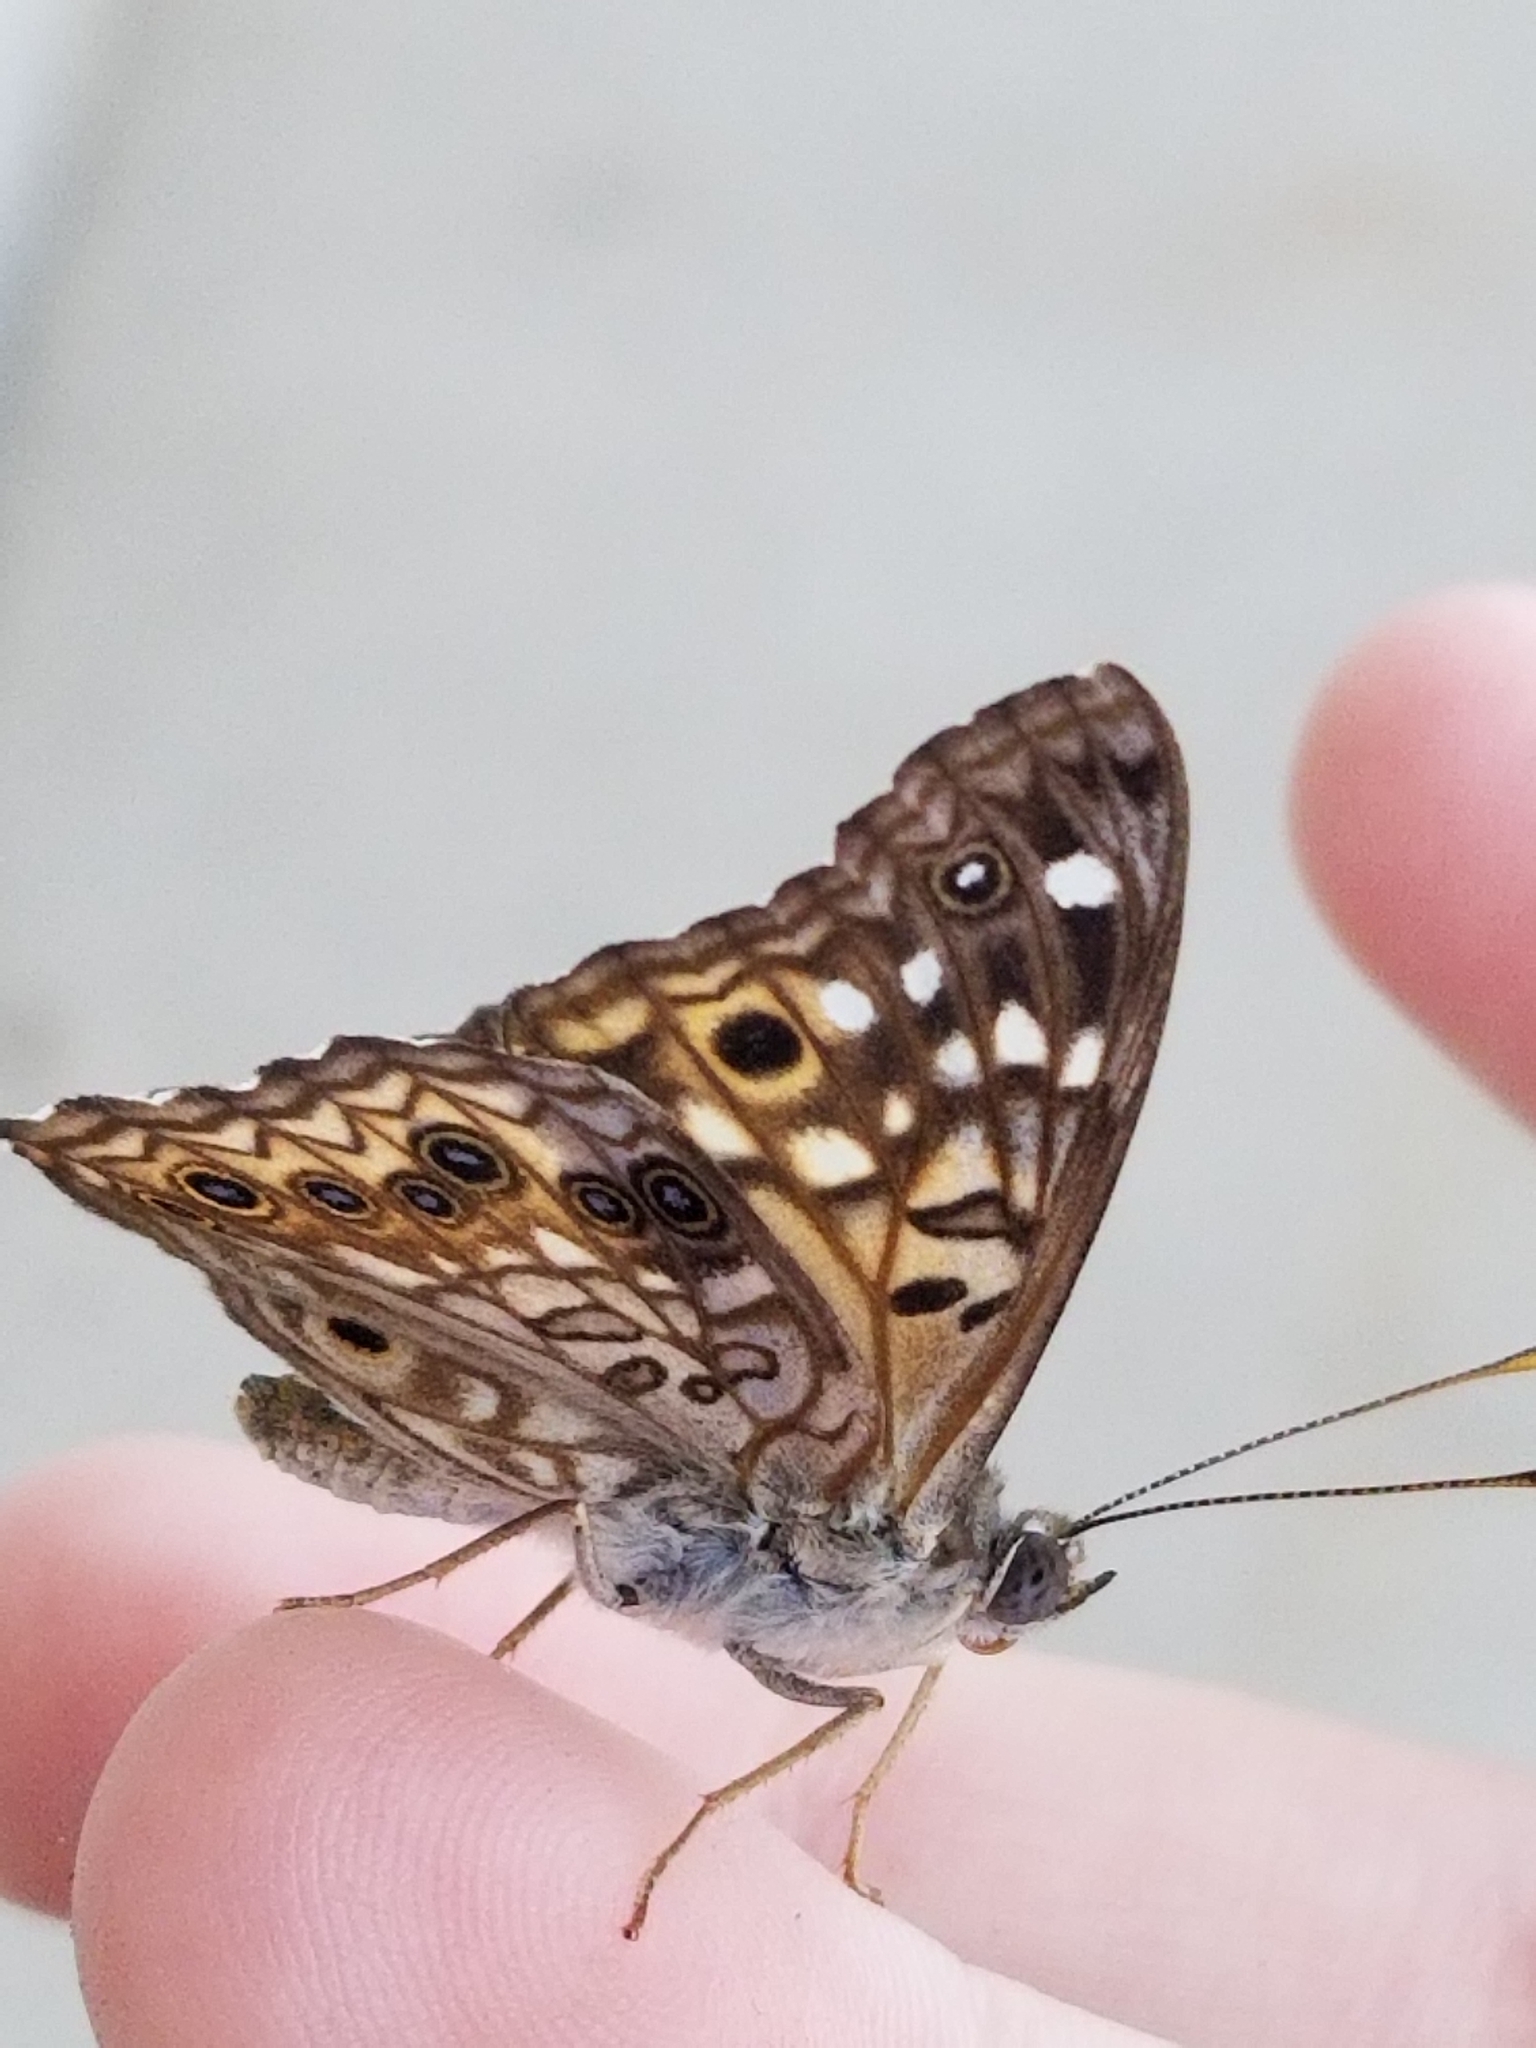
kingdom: Animalia
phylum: Arthropoda
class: Insecta
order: Lepidoptera
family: Nymphalidae
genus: Asterocampa
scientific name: Asterocampa celtis
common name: Hackberry emperor
